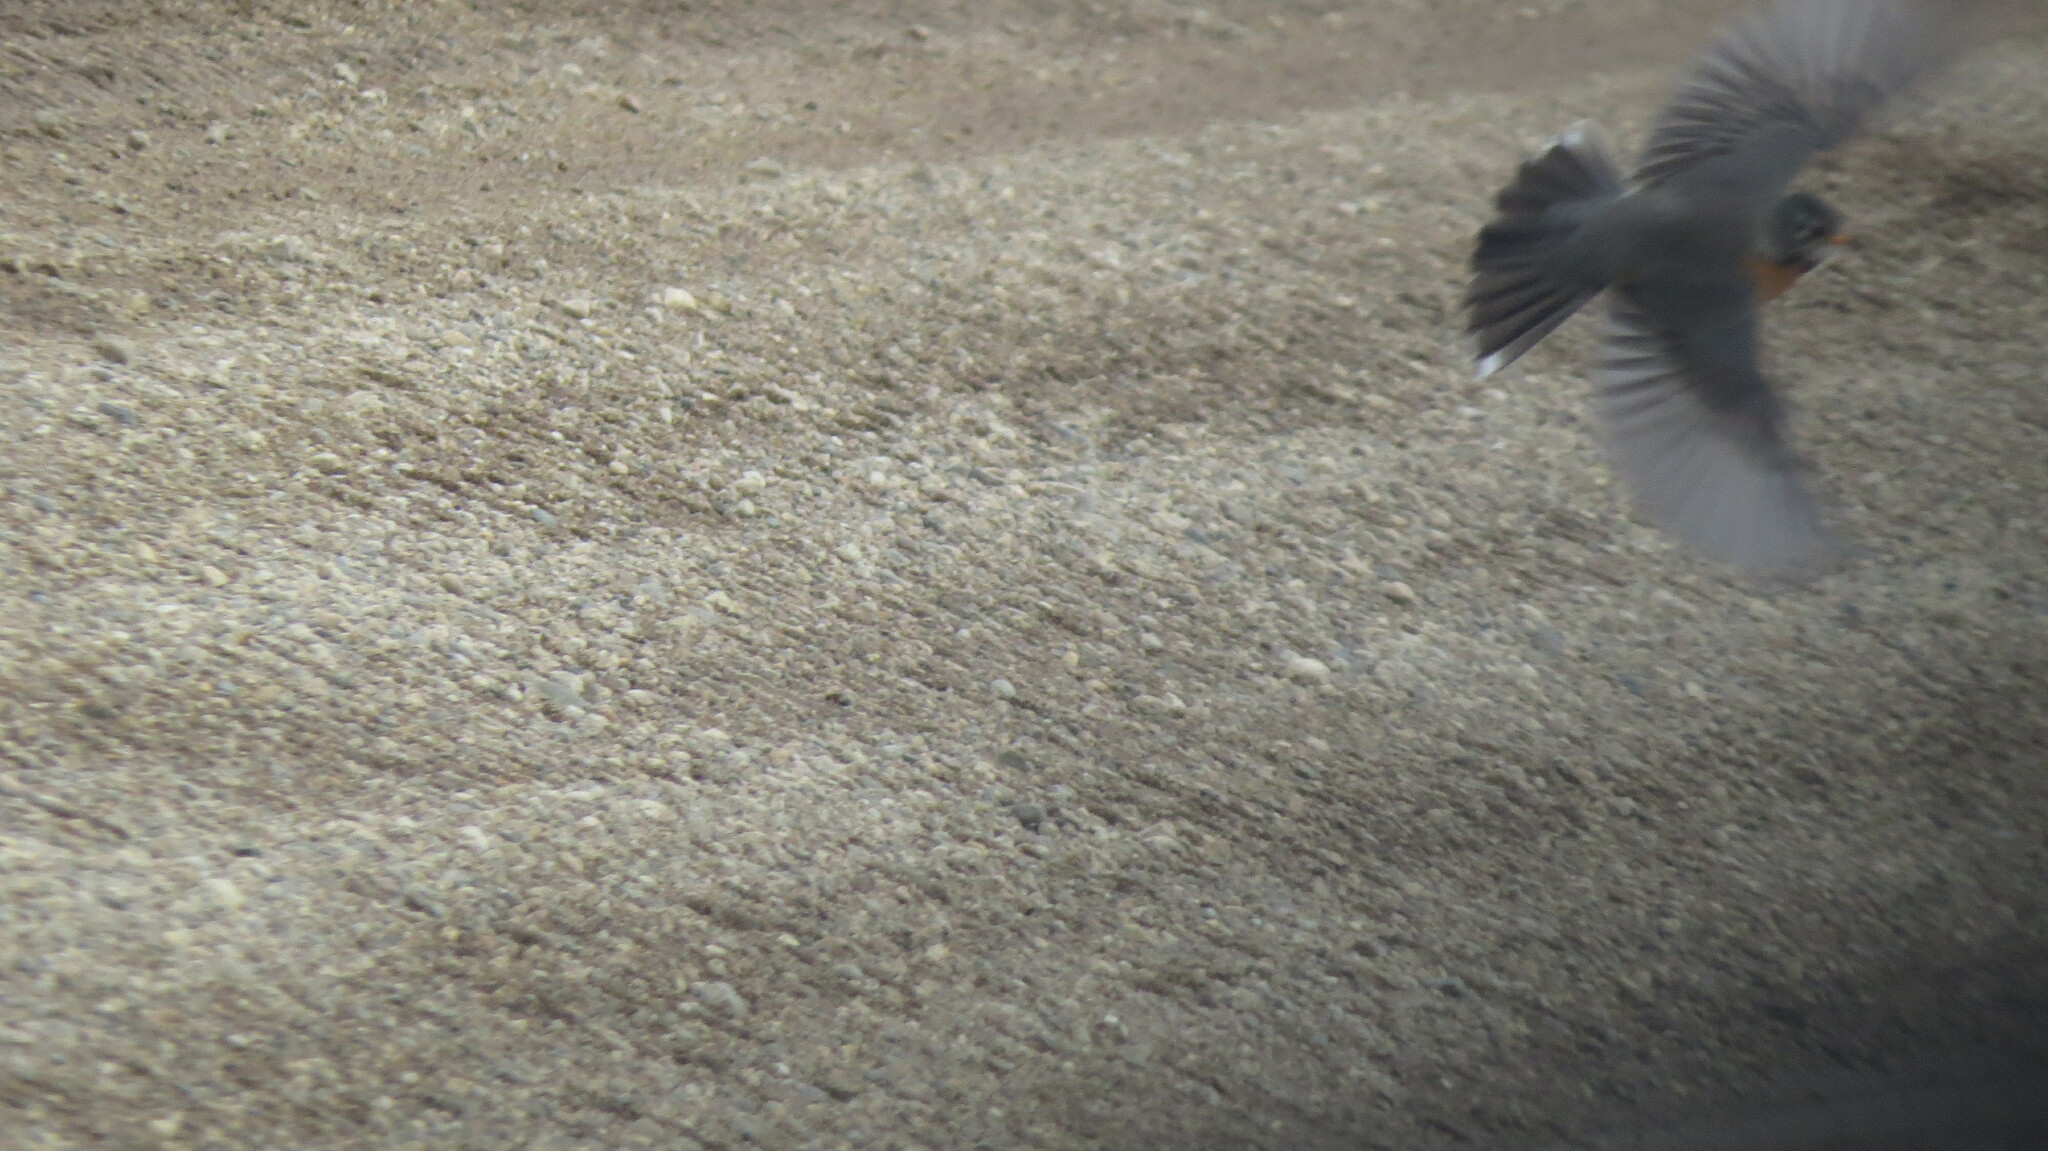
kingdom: Animalia
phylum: Chordata
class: Aves
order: Passeriformes
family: Turdidae
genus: Turdus
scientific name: Turdus migratorius
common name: American robin
